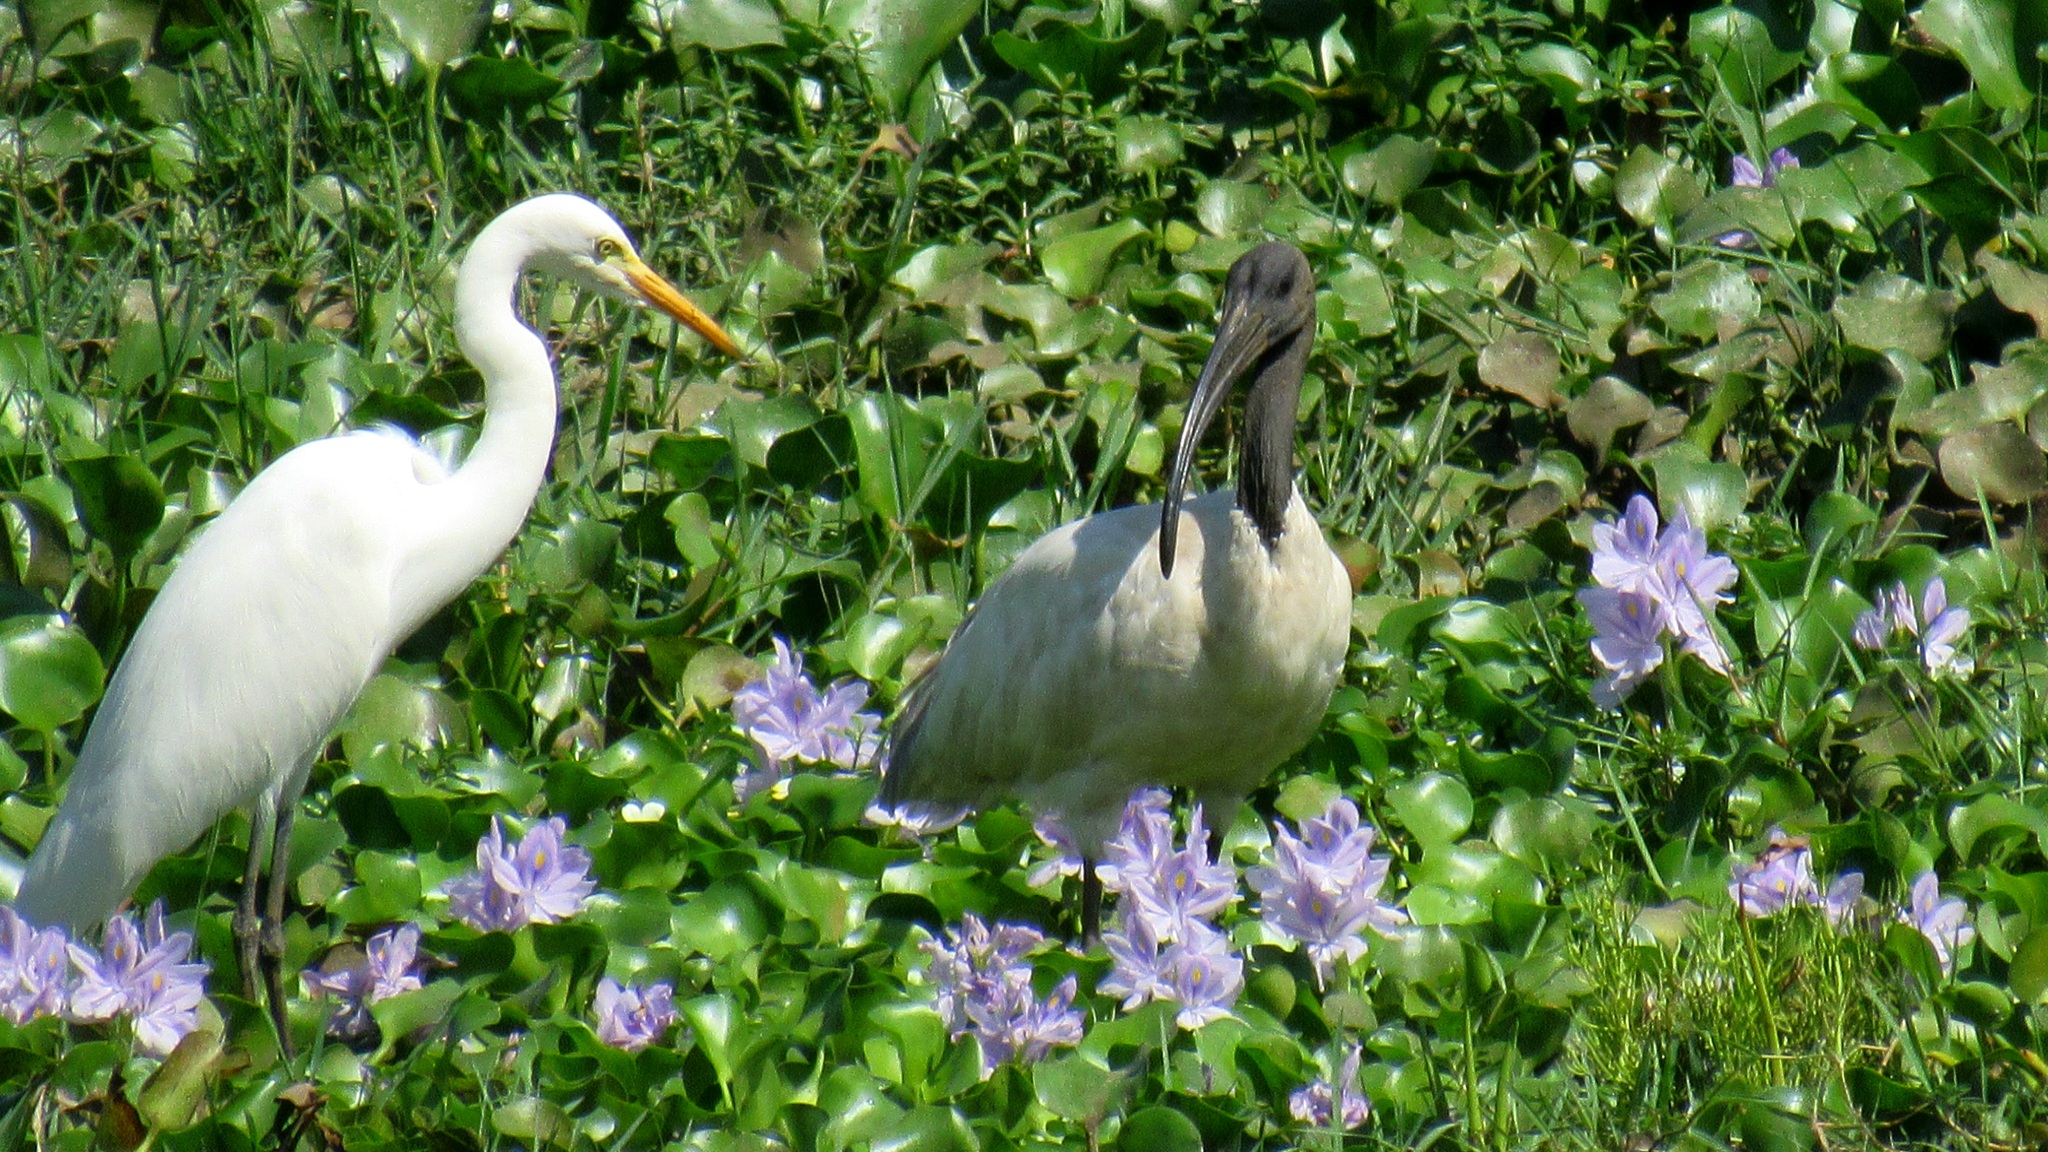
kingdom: Animalia
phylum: Chordata
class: Aves
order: Pelecaniformes
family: Threskiornithidae
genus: Threskiornis
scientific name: Threskiornis melanocephalus
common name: Black-headed ibis
